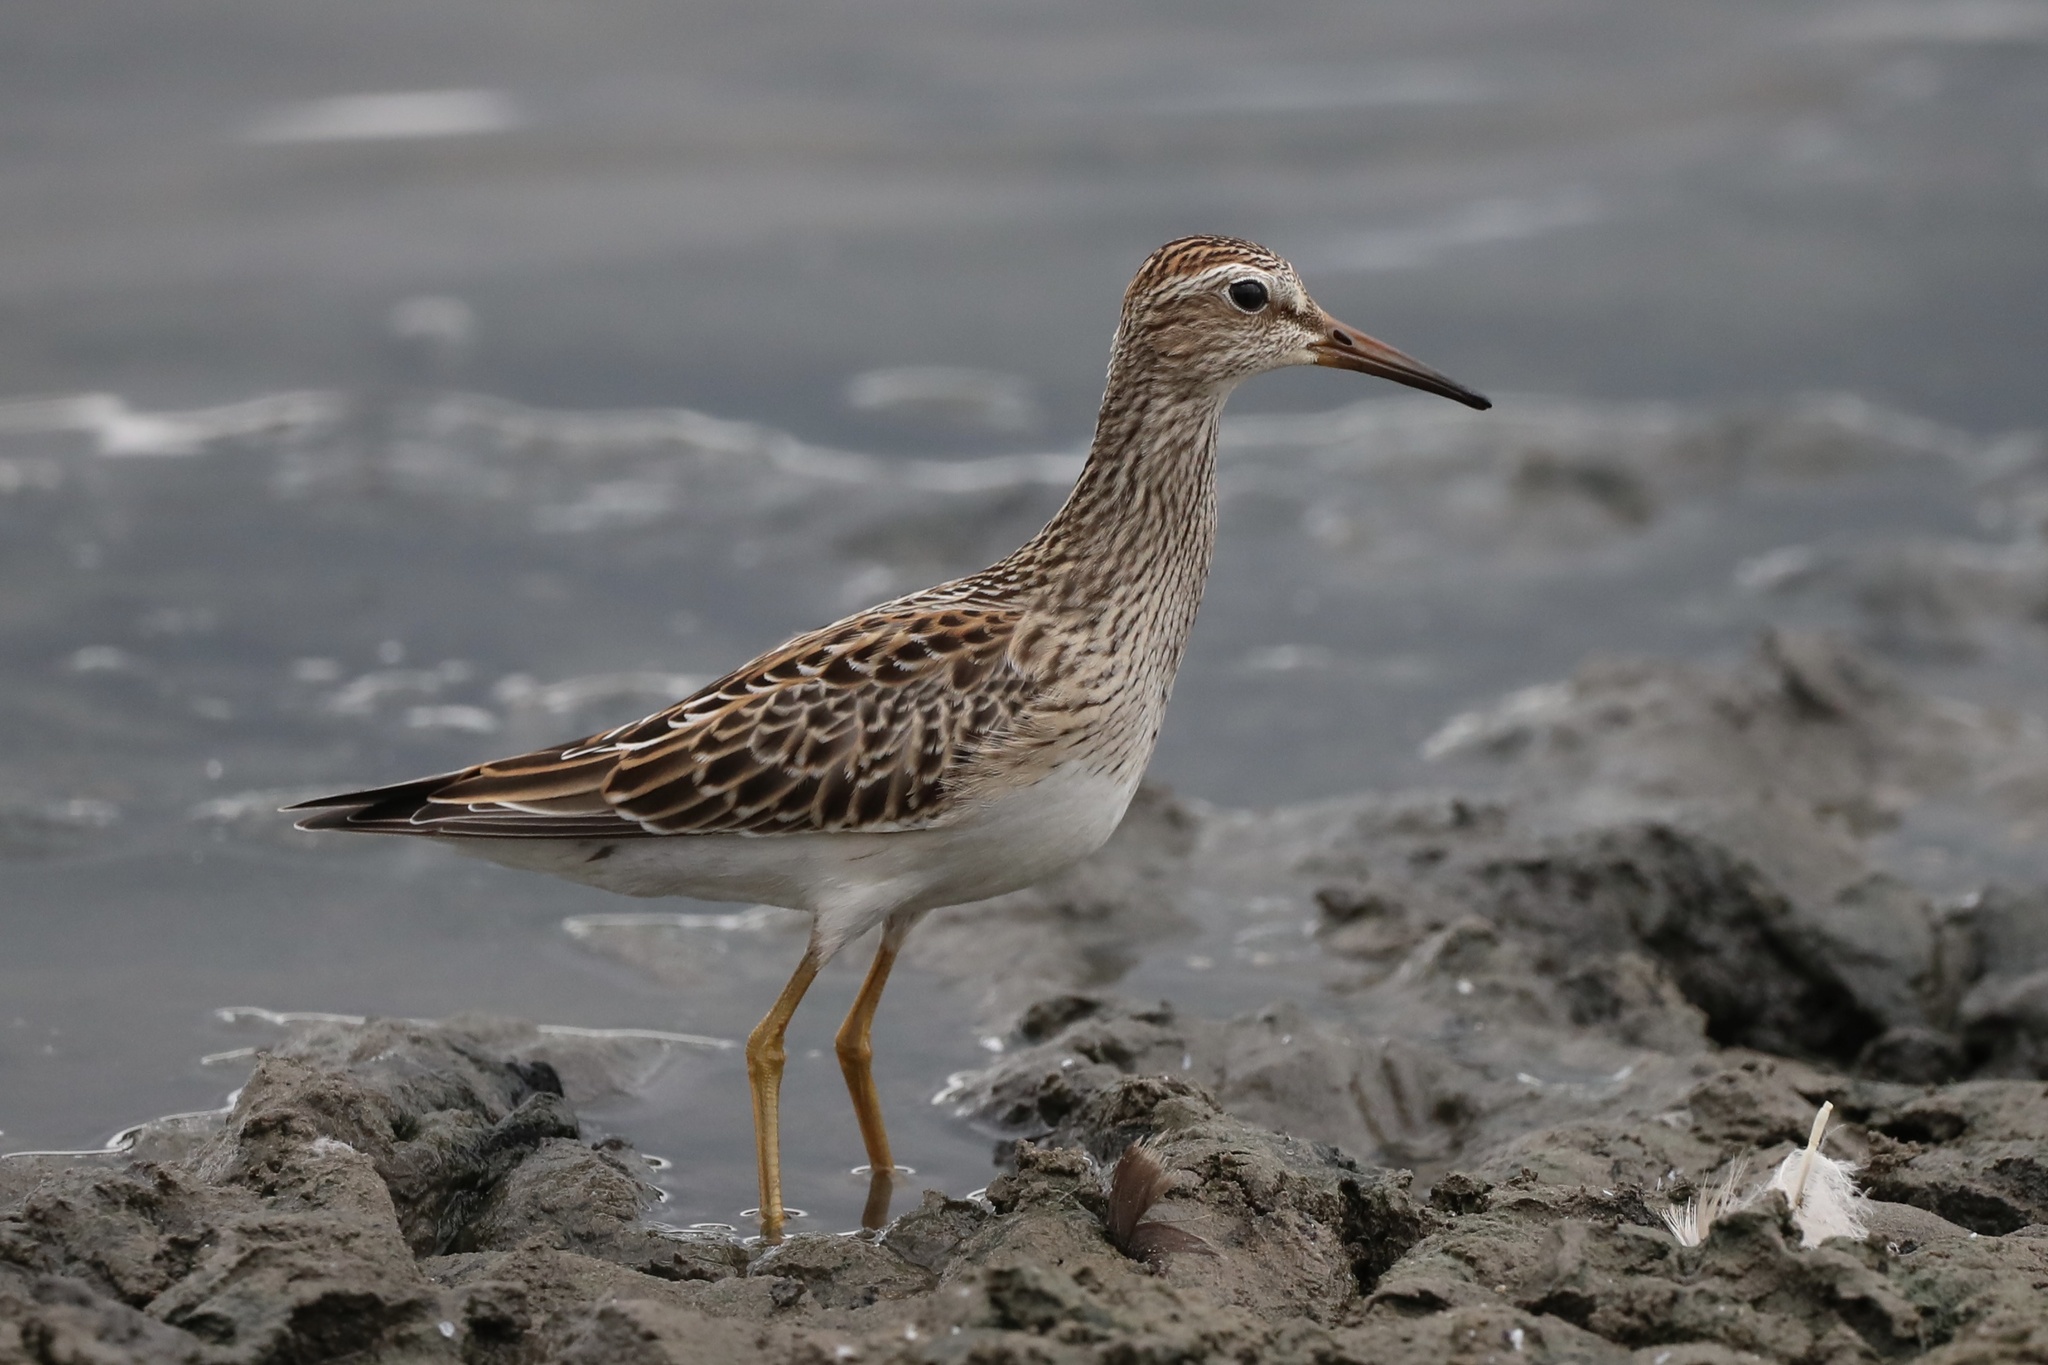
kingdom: Animalia
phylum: Chordata
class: Aves
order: Charadriiformes
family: Scolopacidae
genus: Calidris
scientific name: Calidris melanotos
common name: Pectoral sandpiper
